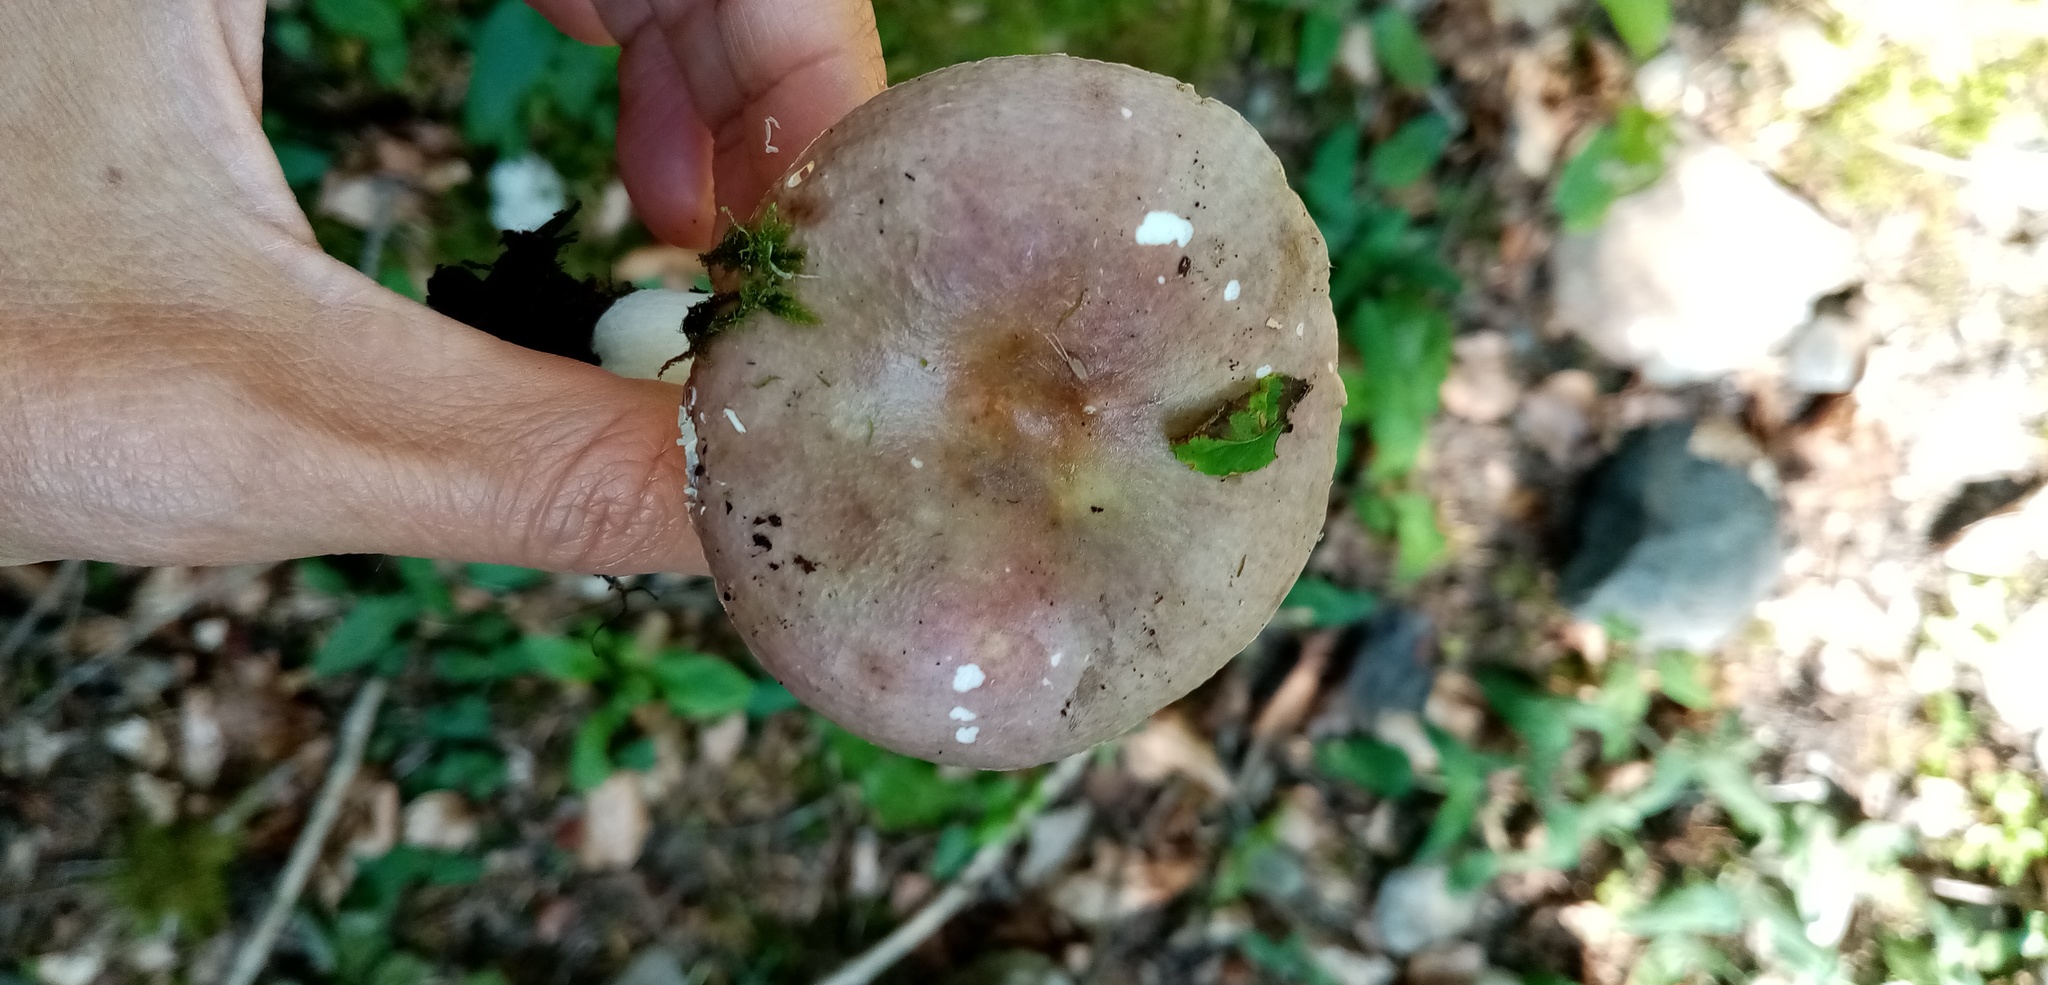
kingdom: Fungi
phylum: Basidiomycota
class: Agaricomycetes
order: Russulales
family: Russulaceae
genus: Russula
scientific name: Russula cyanoxantha
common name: Charcoal burner
